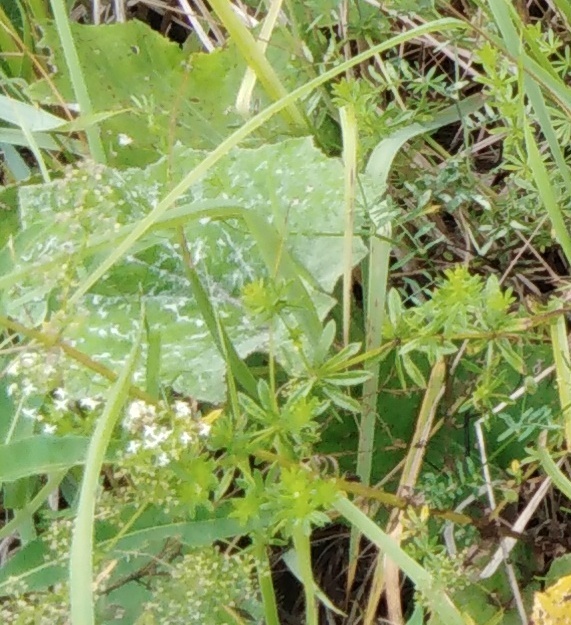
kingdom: Plantae
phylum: Tracheophyta
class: Magnoliopsida
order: Gentianales
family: Rubiaceae
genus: Galium
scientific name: Galium mollugo
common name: Hedge bedstraw
